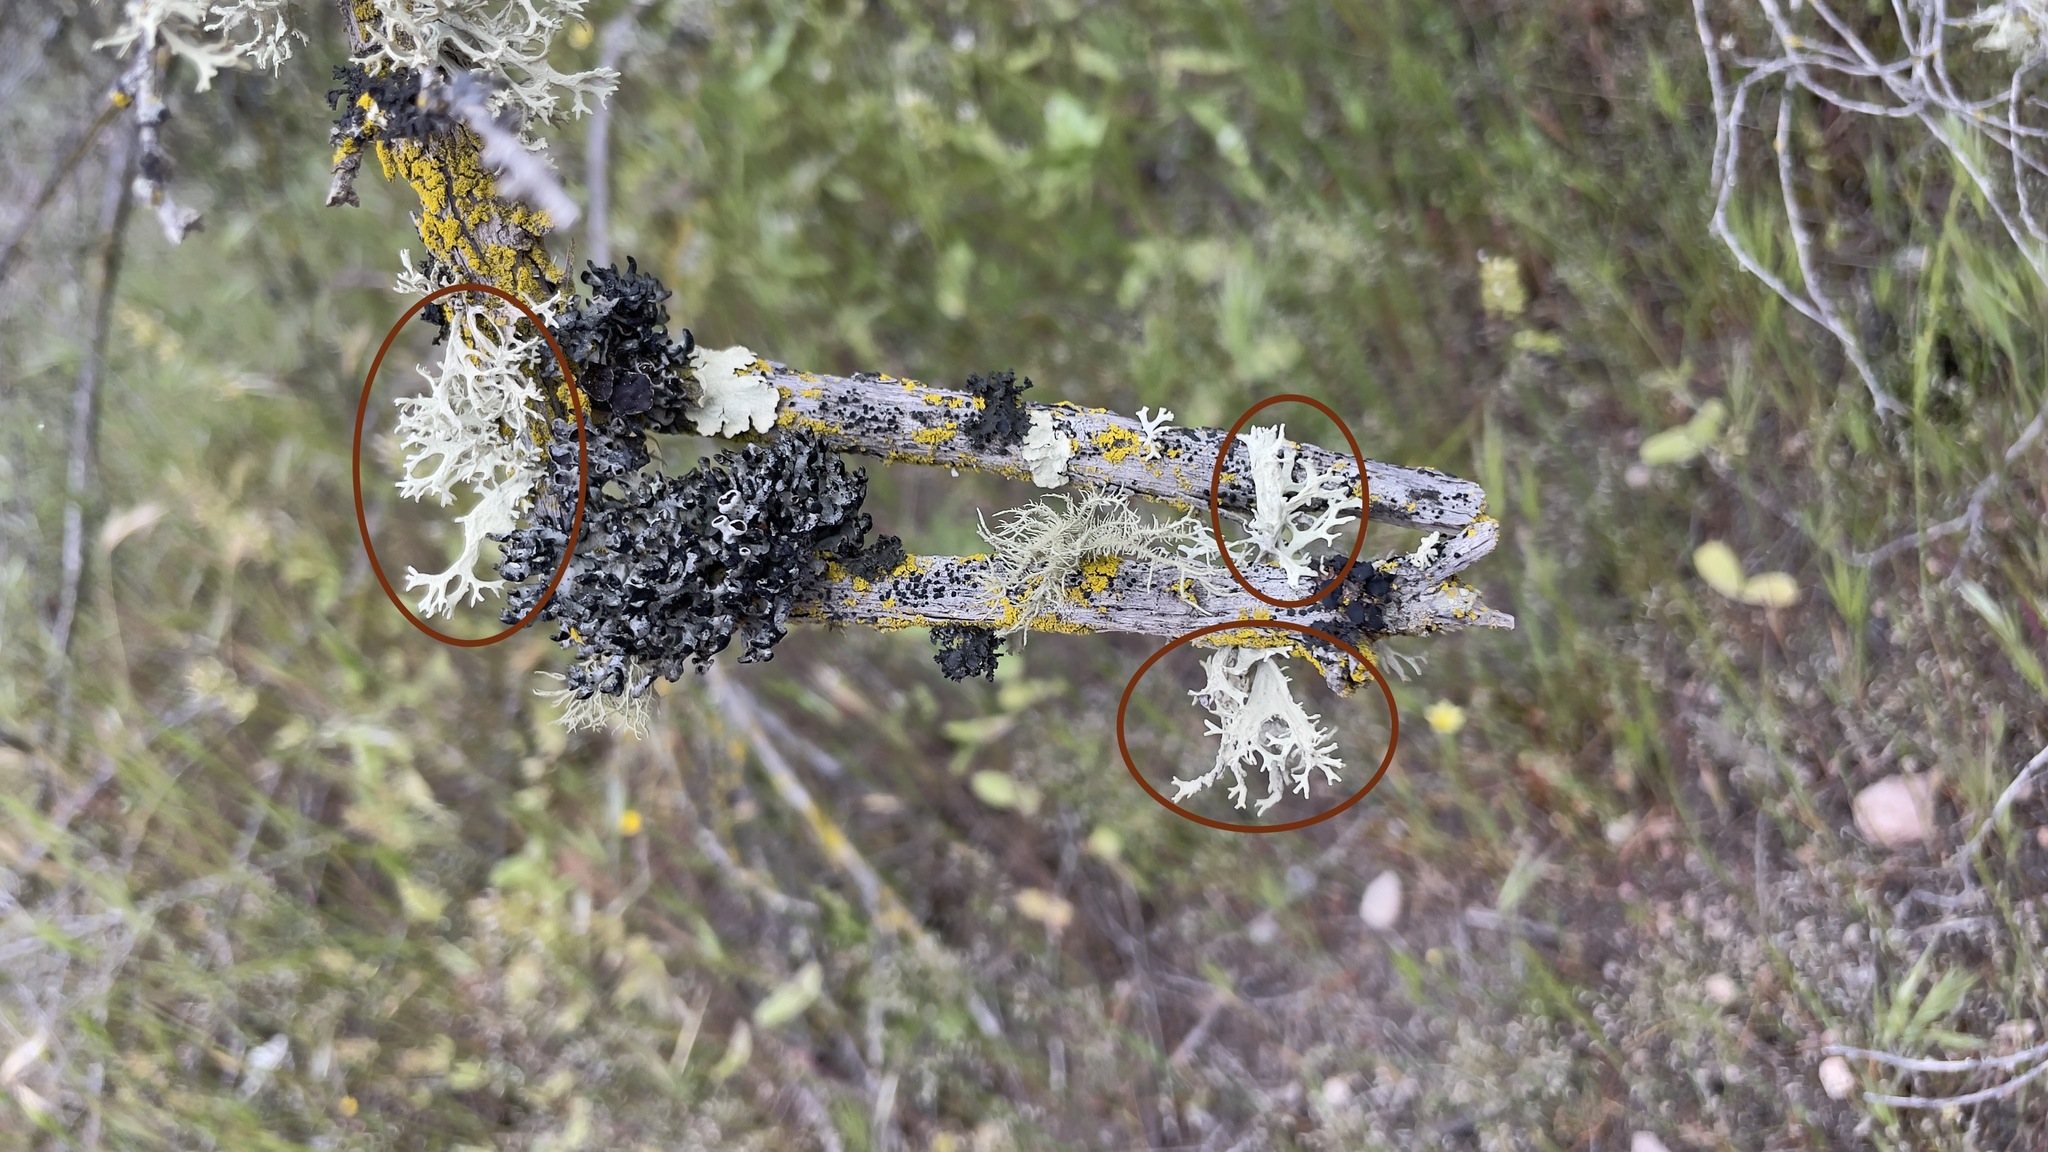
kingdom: Fungi
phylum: Ascomycota
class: Lecanoromycetes
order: Lecanorales
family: Parmeliaceae
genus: Evernia
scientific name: Evernia prunastri
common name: Oak moss
